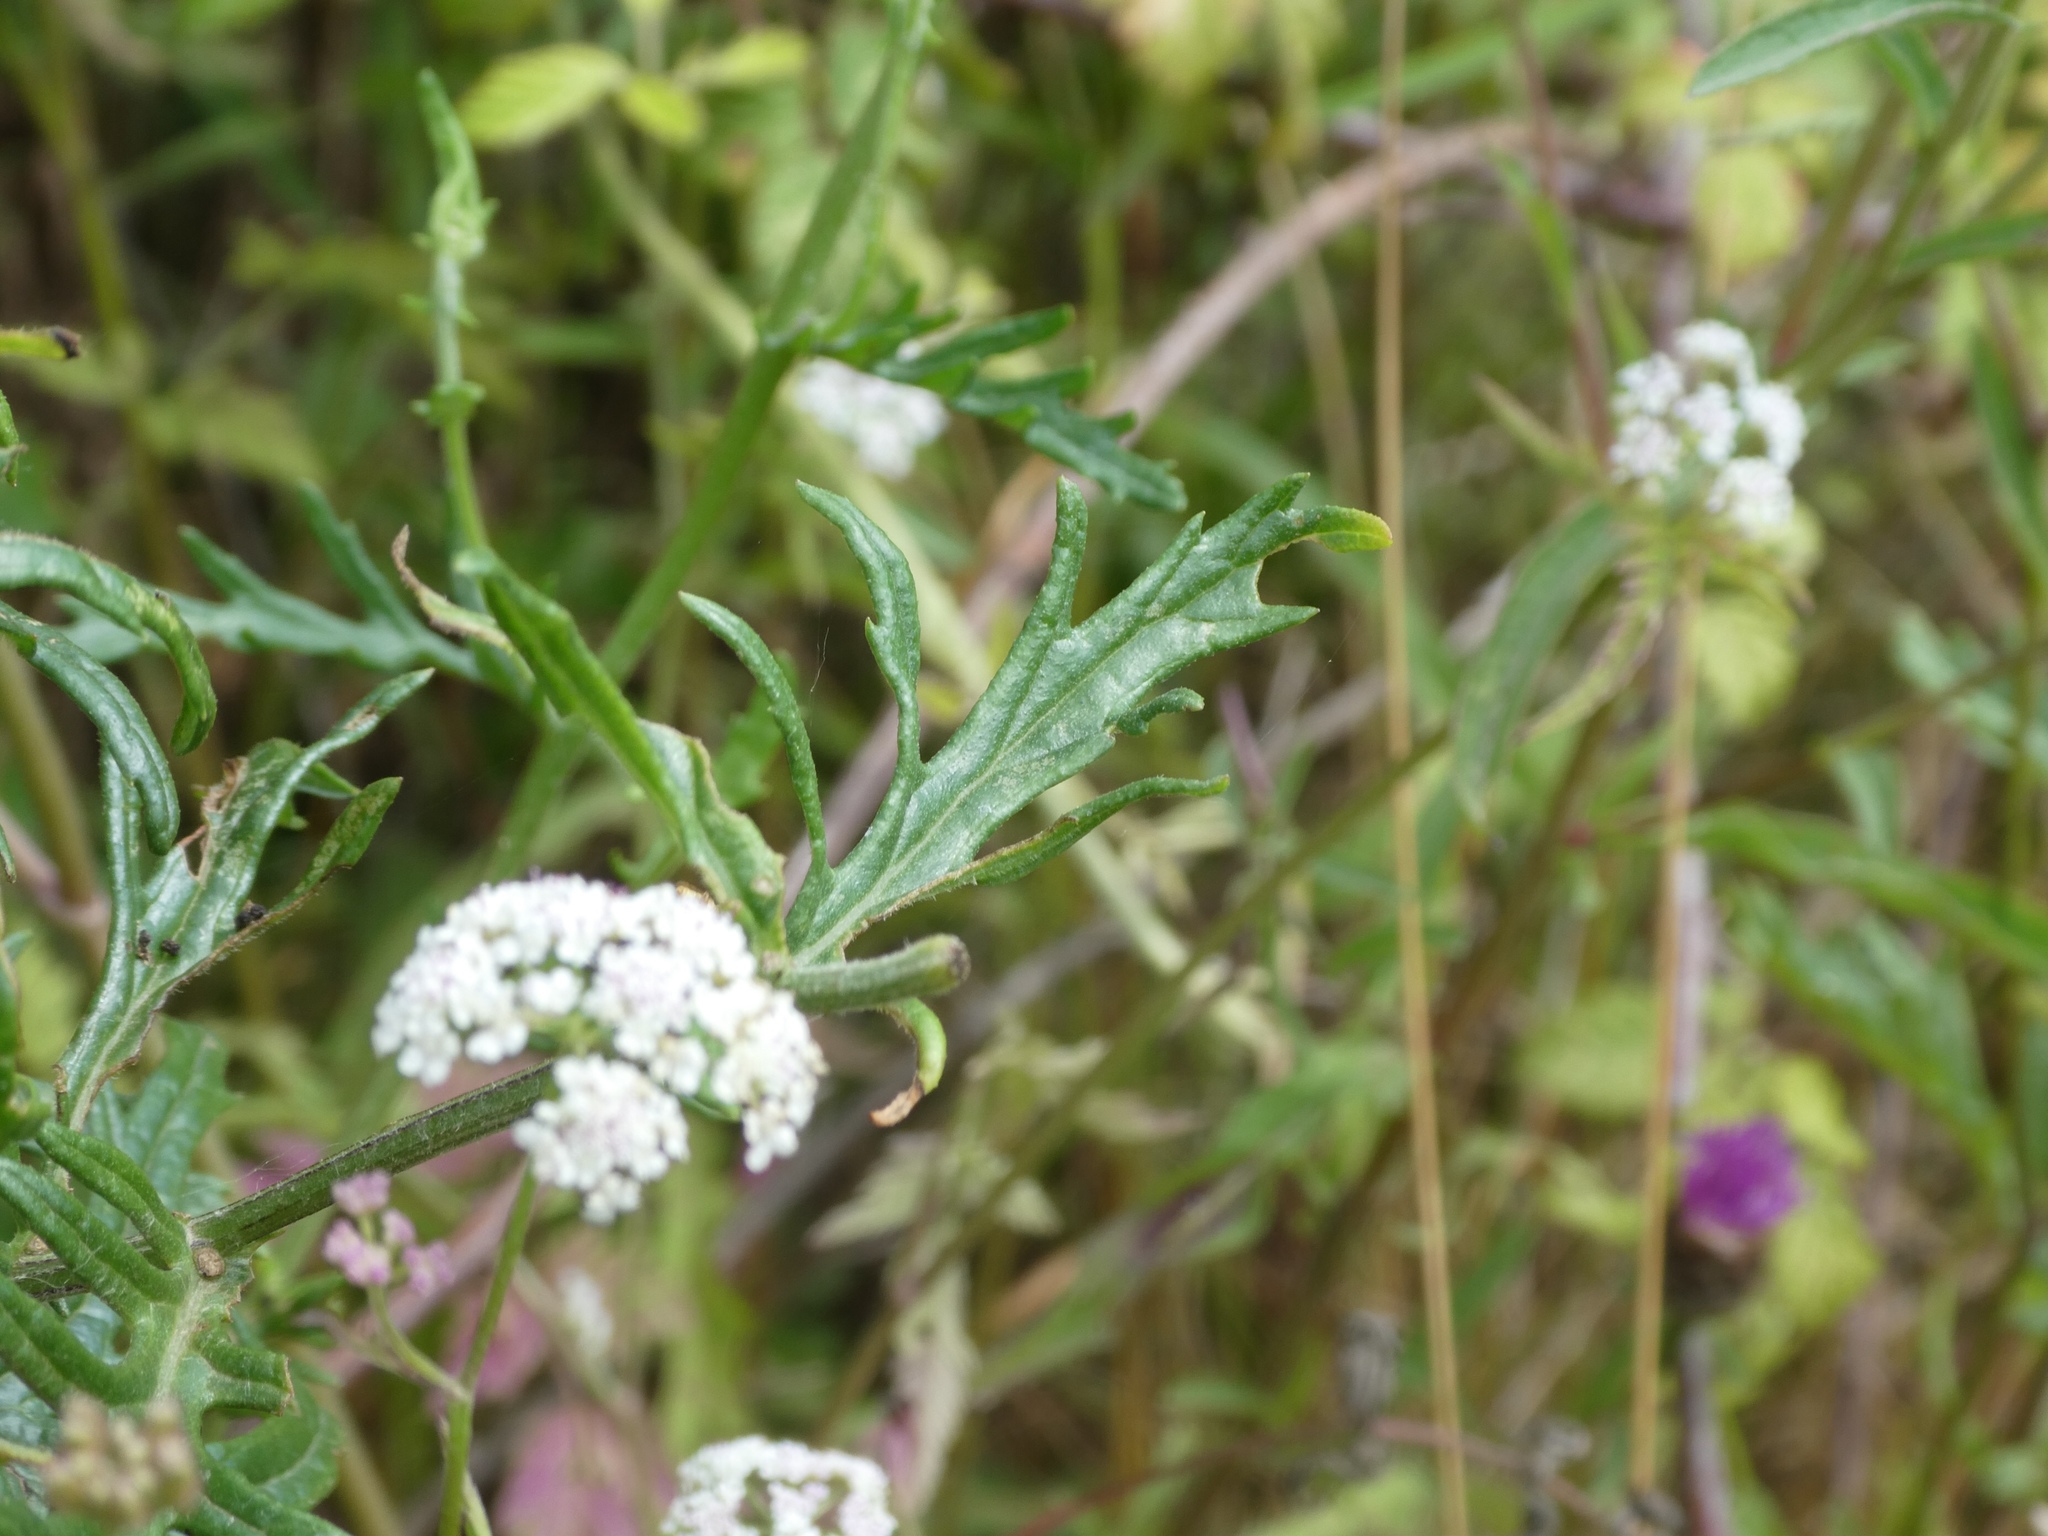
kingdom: Plantae
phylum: Tracheophyta
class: Magnoliopsida
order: Apiales
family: Apiaceae
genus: Torilis
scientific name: Torilis japonica
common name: Upright hedge-parsley
